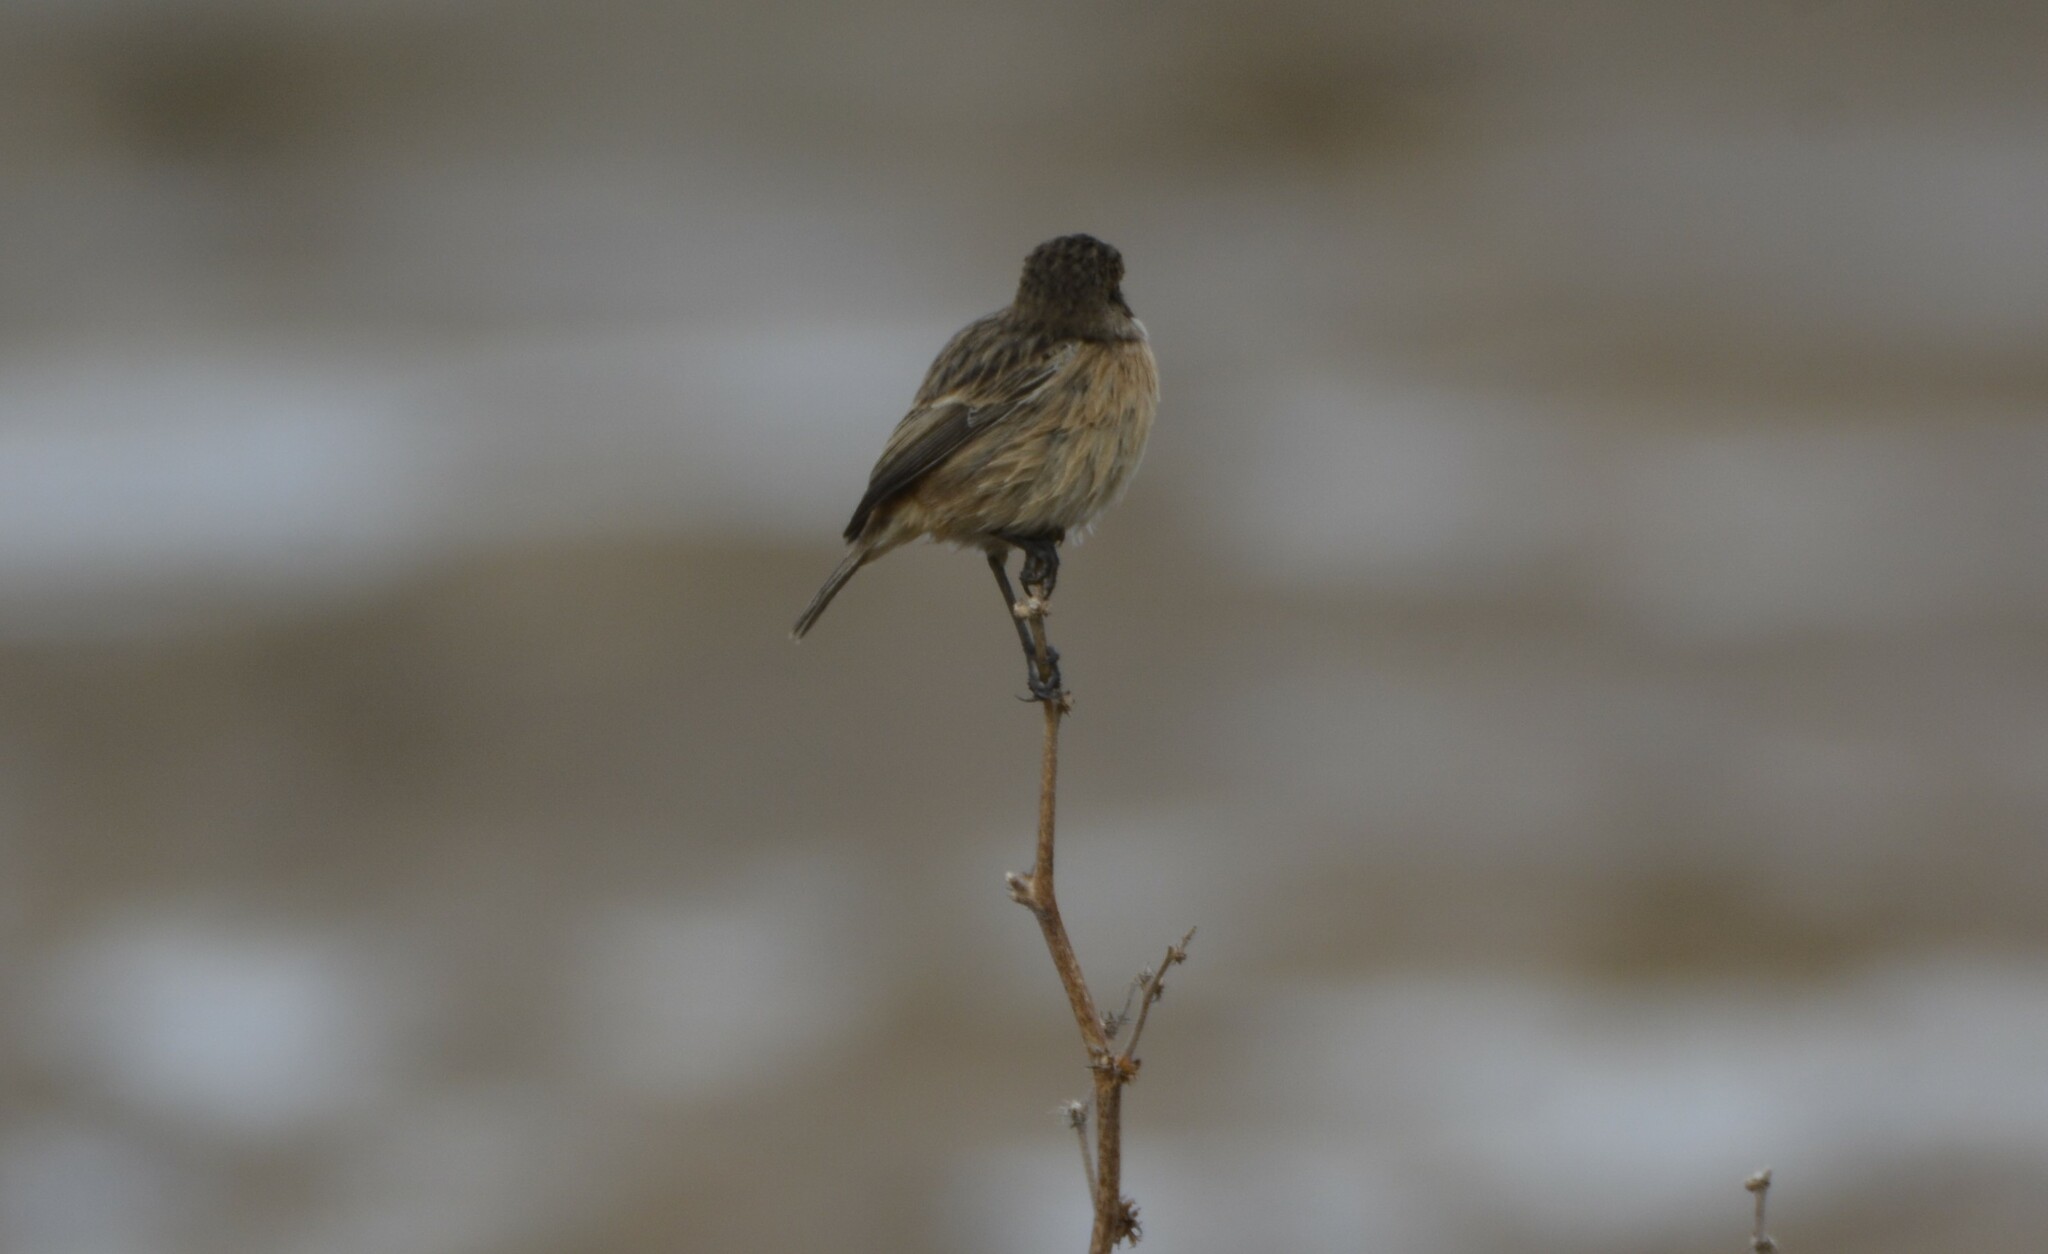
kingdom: Animalia
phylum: Chordata
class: Aves
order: Passeriformes
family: Muscicapidae
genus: Saxicola
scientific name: Saxicola rubicola
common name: European stonechat
